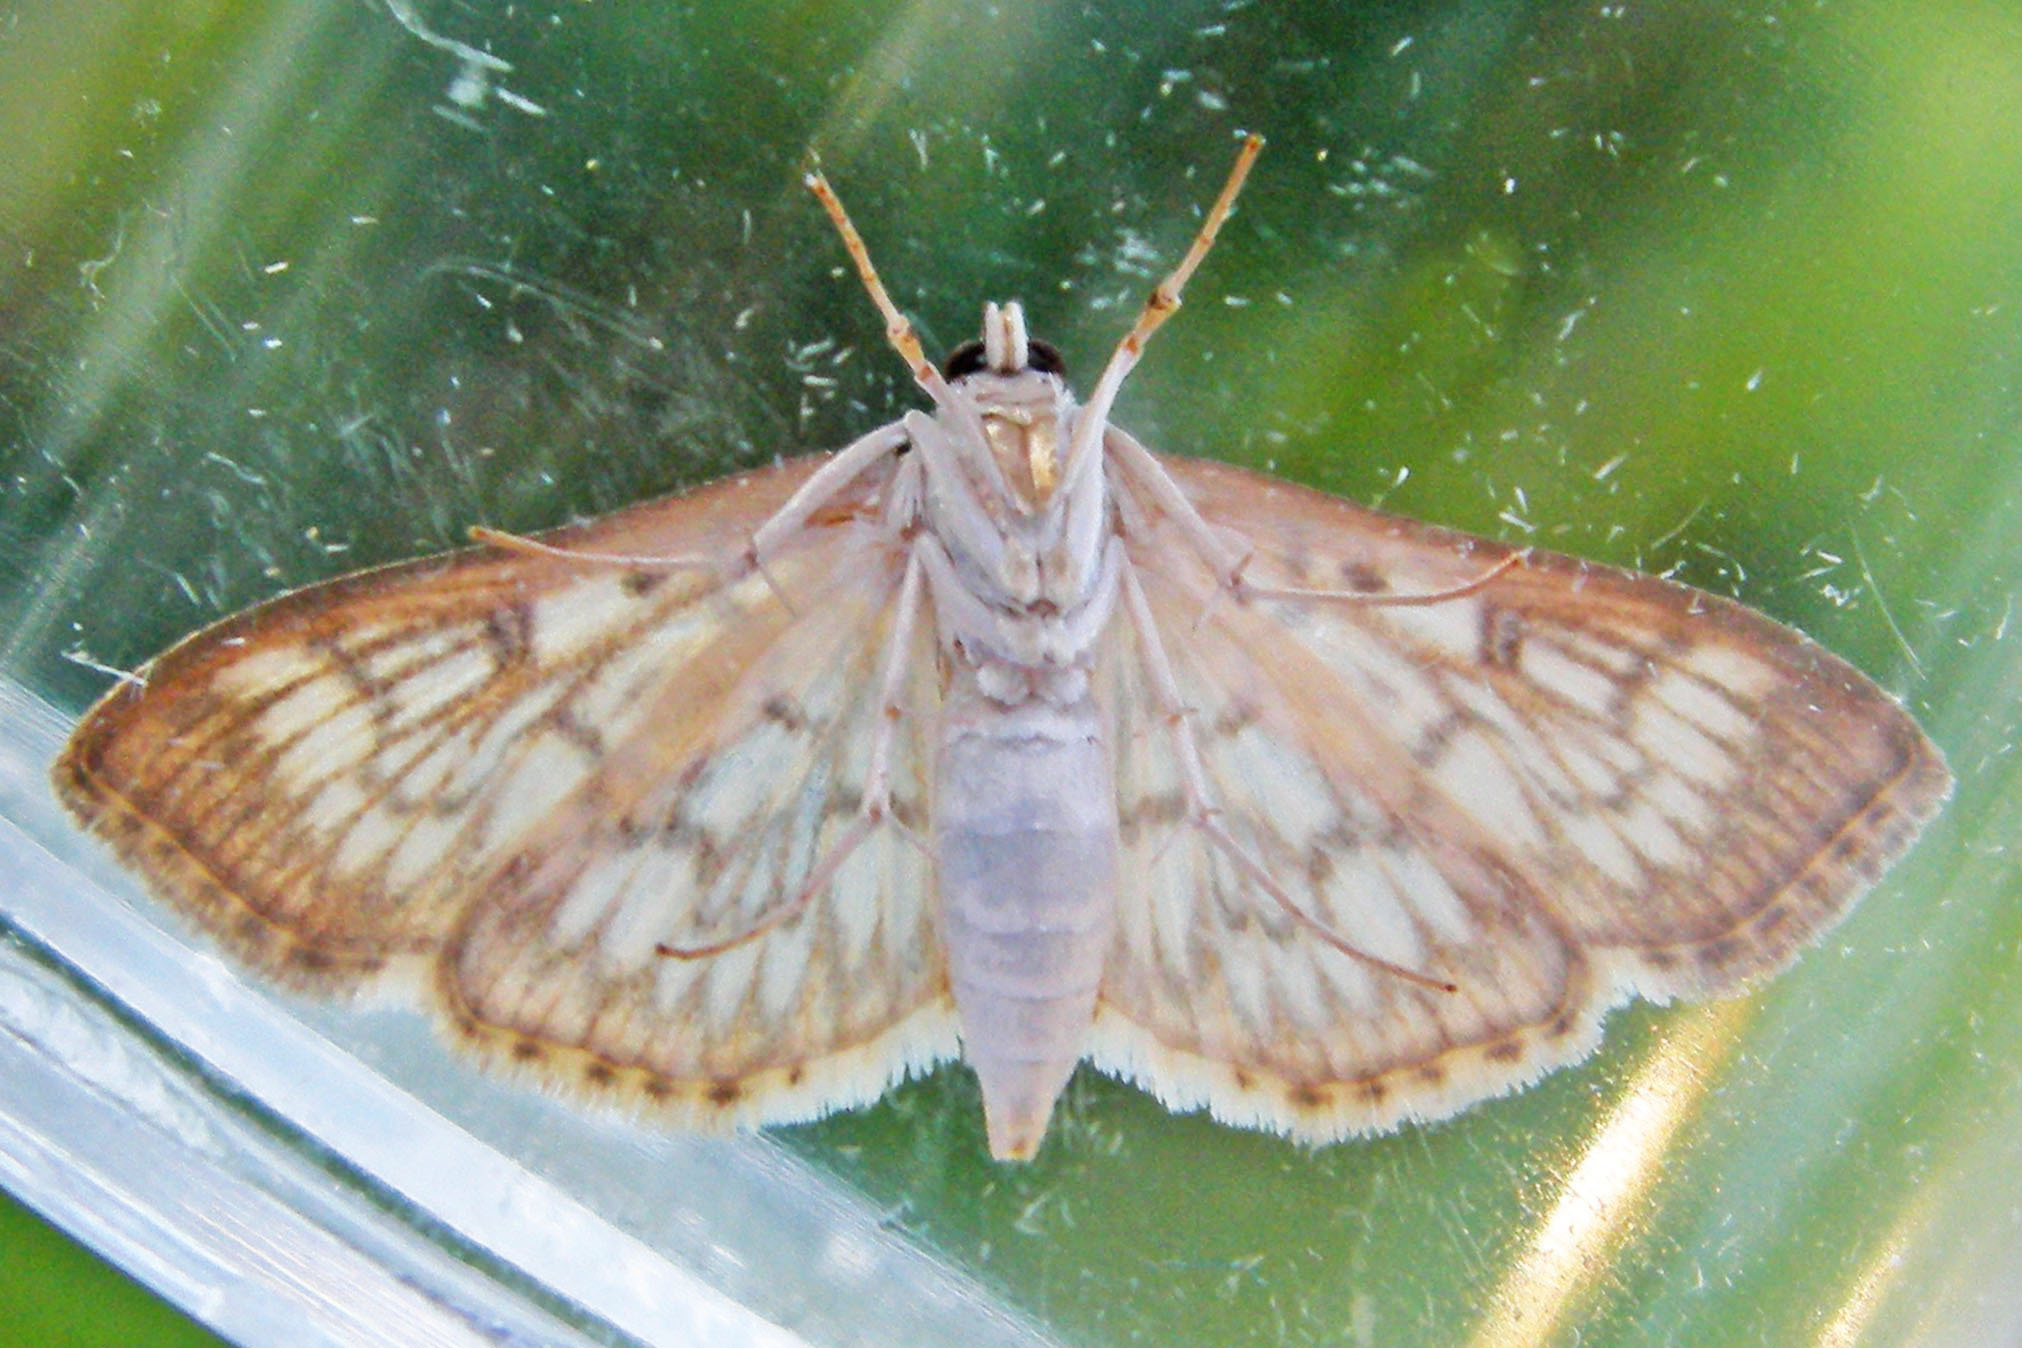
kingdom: Animalia
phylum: Arthropoda
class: Insecta
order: Lepidoptera
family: Crambidae
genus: Herpetogramma
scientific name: Herpetogramma pertextalis
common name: Bold-feathered grass moth
